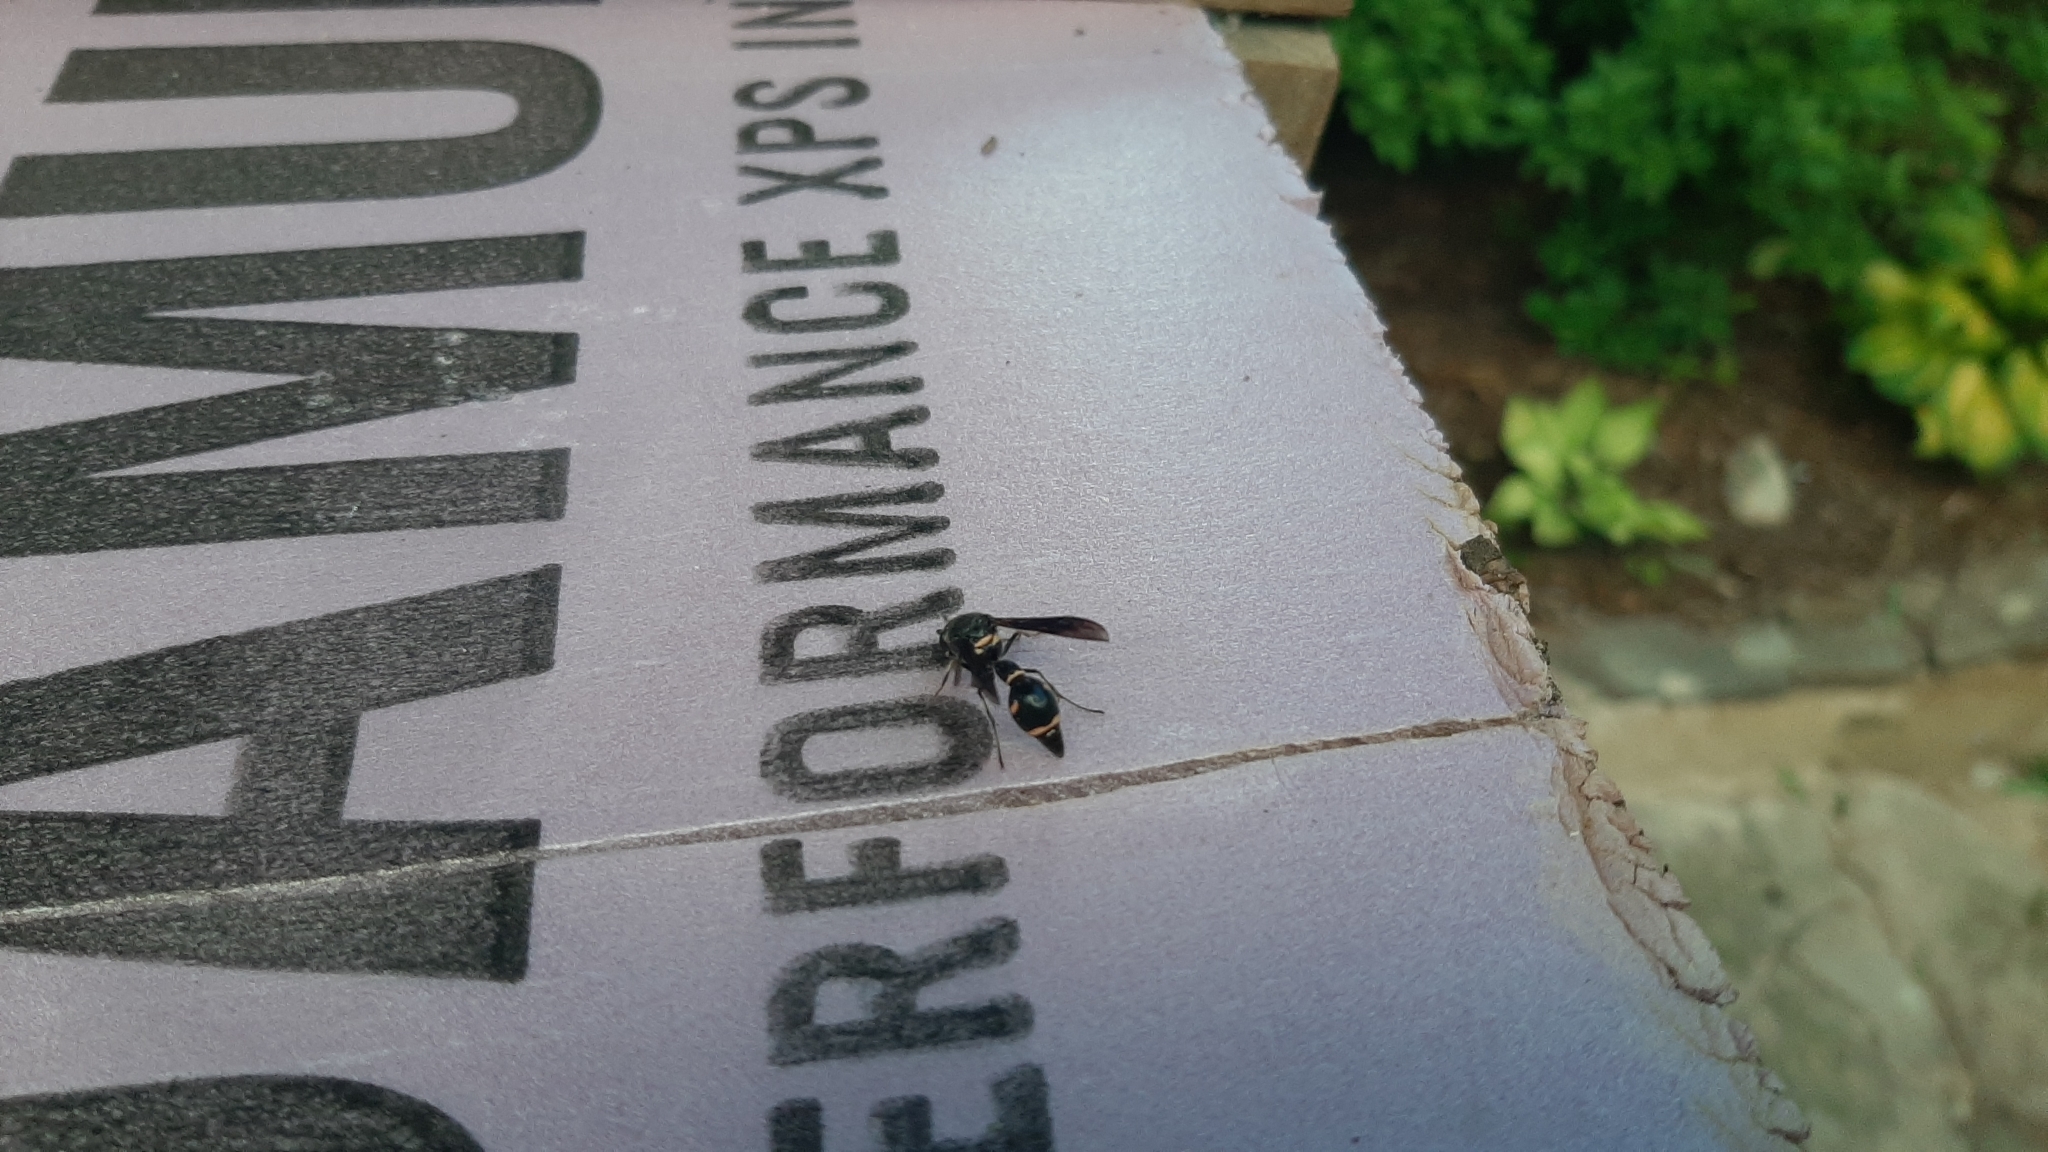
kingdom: Animalia
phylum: Arthropoda
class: Insecta
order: Hymenoptera
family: Vespidae
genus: Eumenes
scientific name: Eumenes fraternus
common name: Fraternal potter wasp
